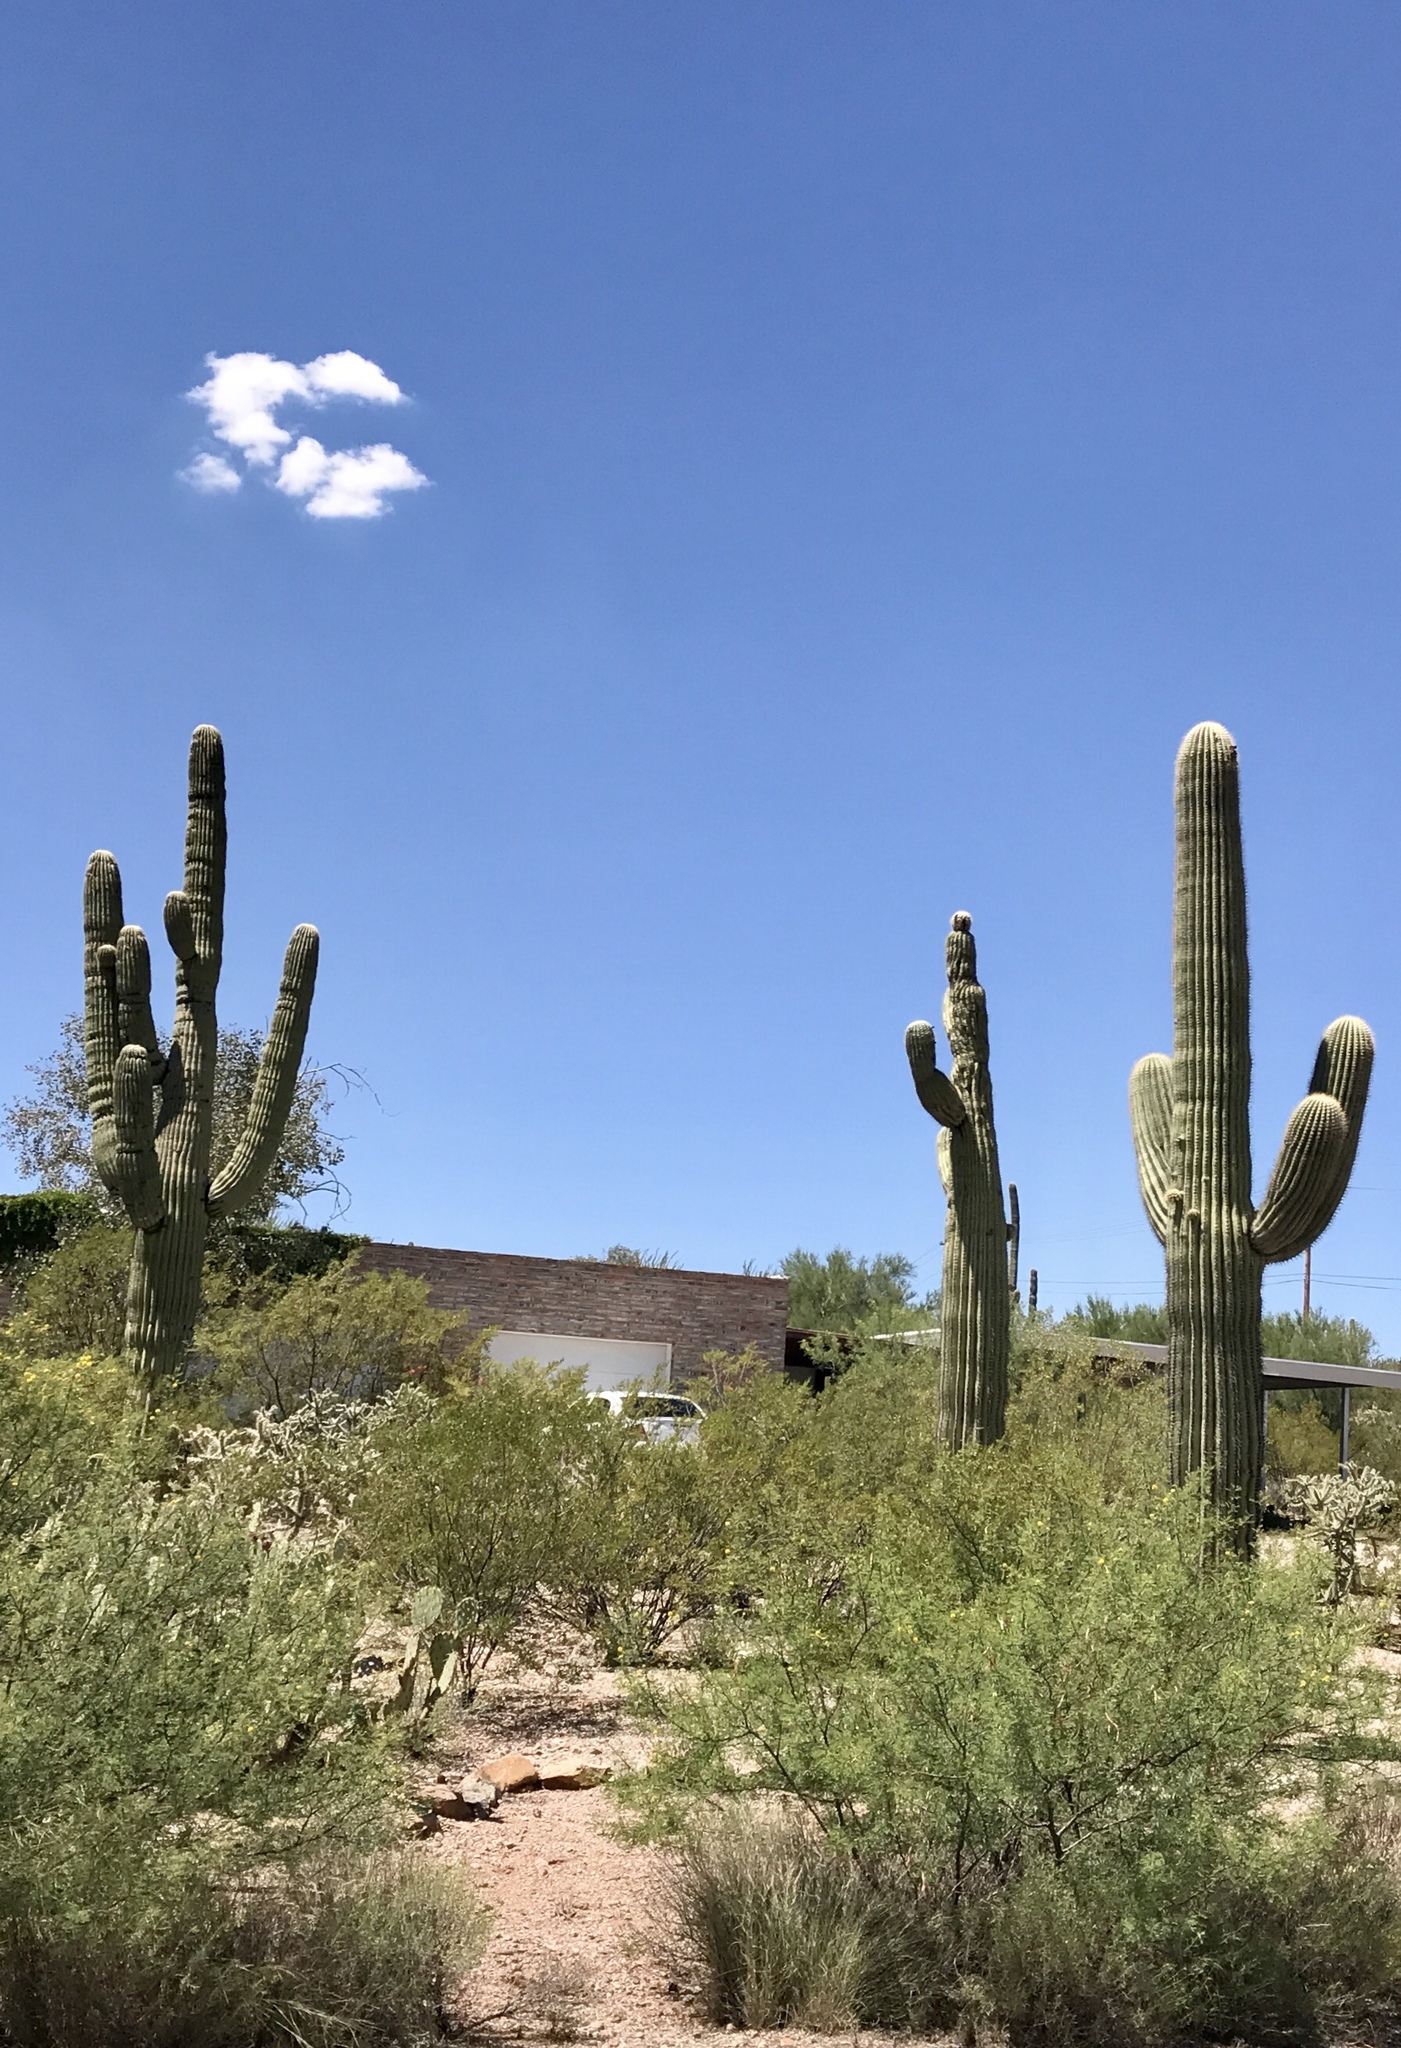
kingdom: Plantae
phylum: Tracheophyta
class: Magnoliopsida
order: Caryophyllales
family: Cactaceae
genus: Carnegiea
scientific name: Carnegiea gigantea
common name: Saguaro
